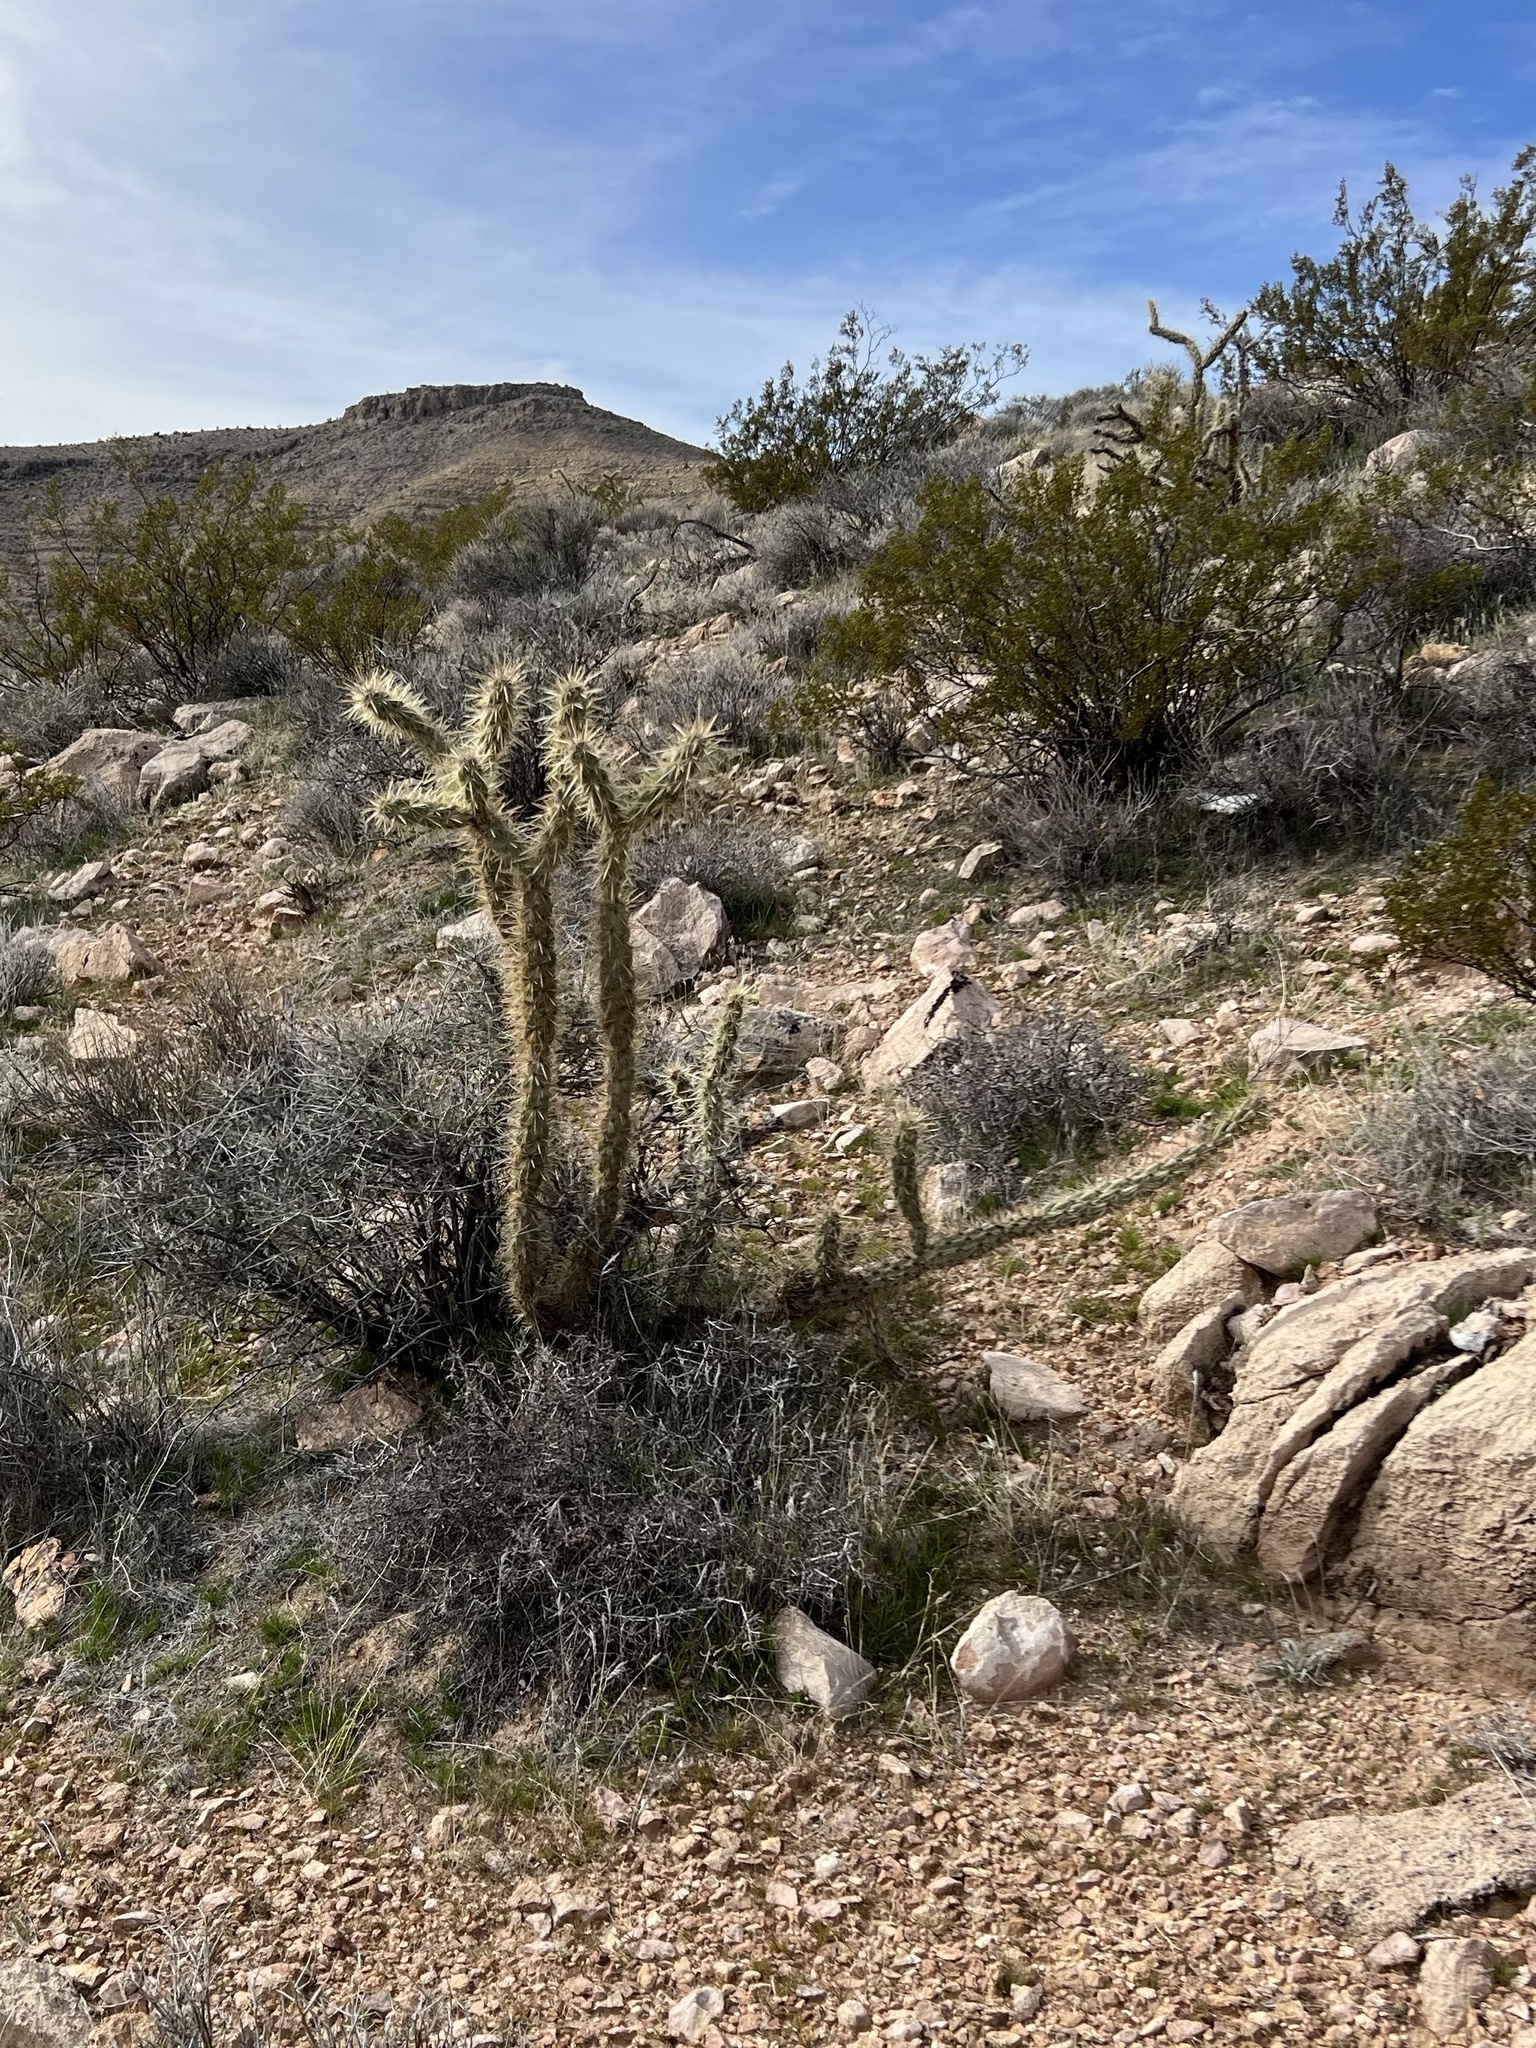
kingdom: Plantae
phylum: Tracheophyta
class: Magnoliopsida
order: Caryophyllales
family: Cactaceae
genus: Cylindropuntia
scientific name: Cylindropuntia acanthocarpa
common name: Buckhorn cholla
